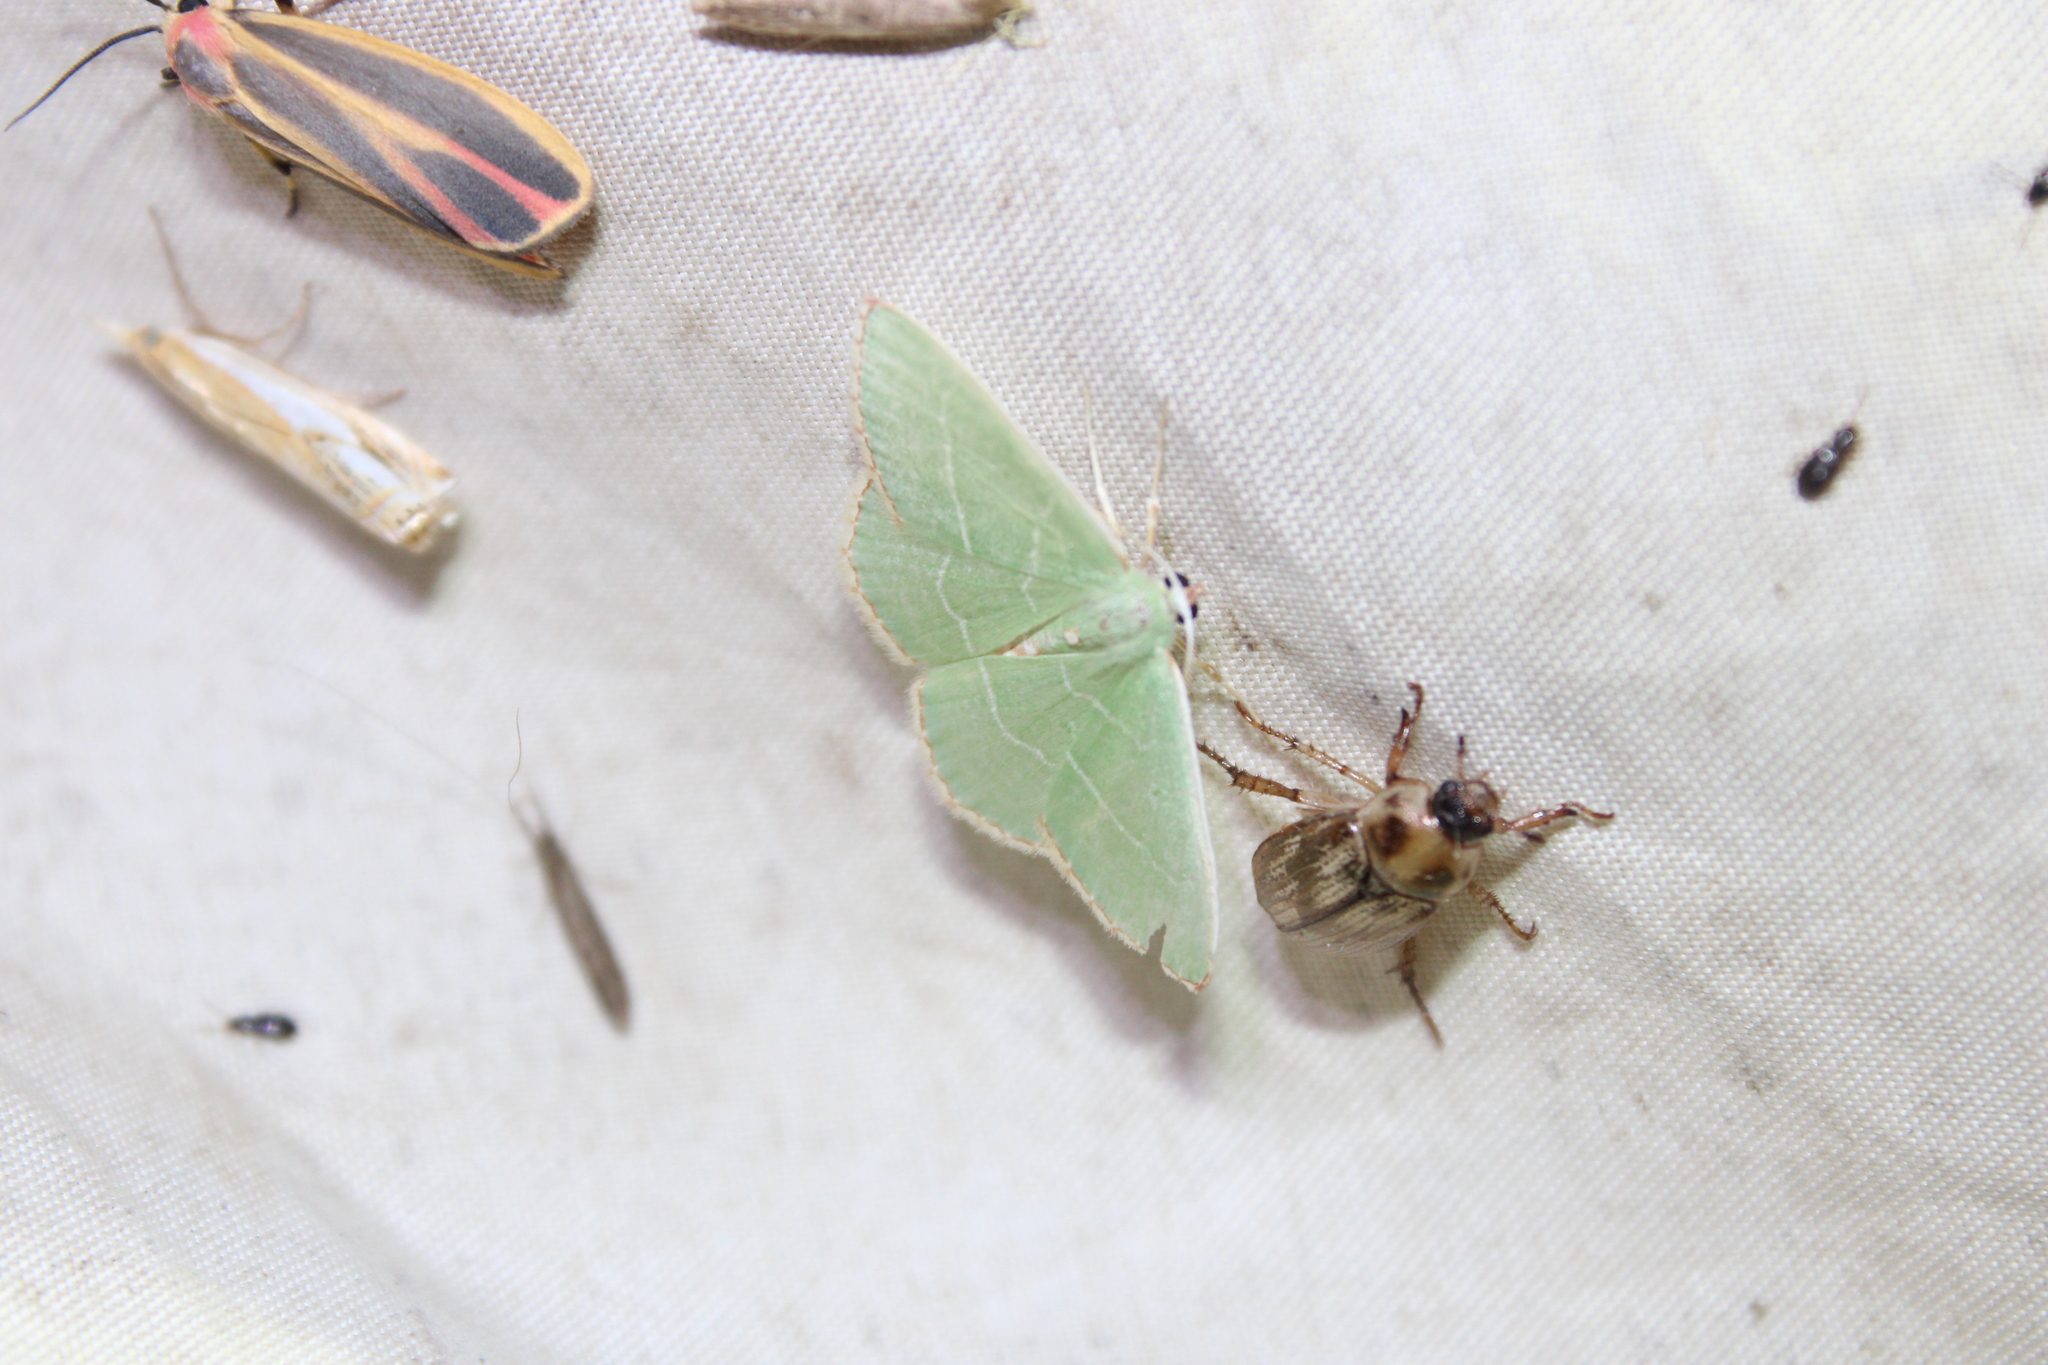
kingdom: Animalia
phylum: Arthropoda
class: Insecta
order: Lepidoptera
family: Geometridae
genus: Nemoria
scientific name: Nemoria bistriaria
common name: Red-fringed emerald
